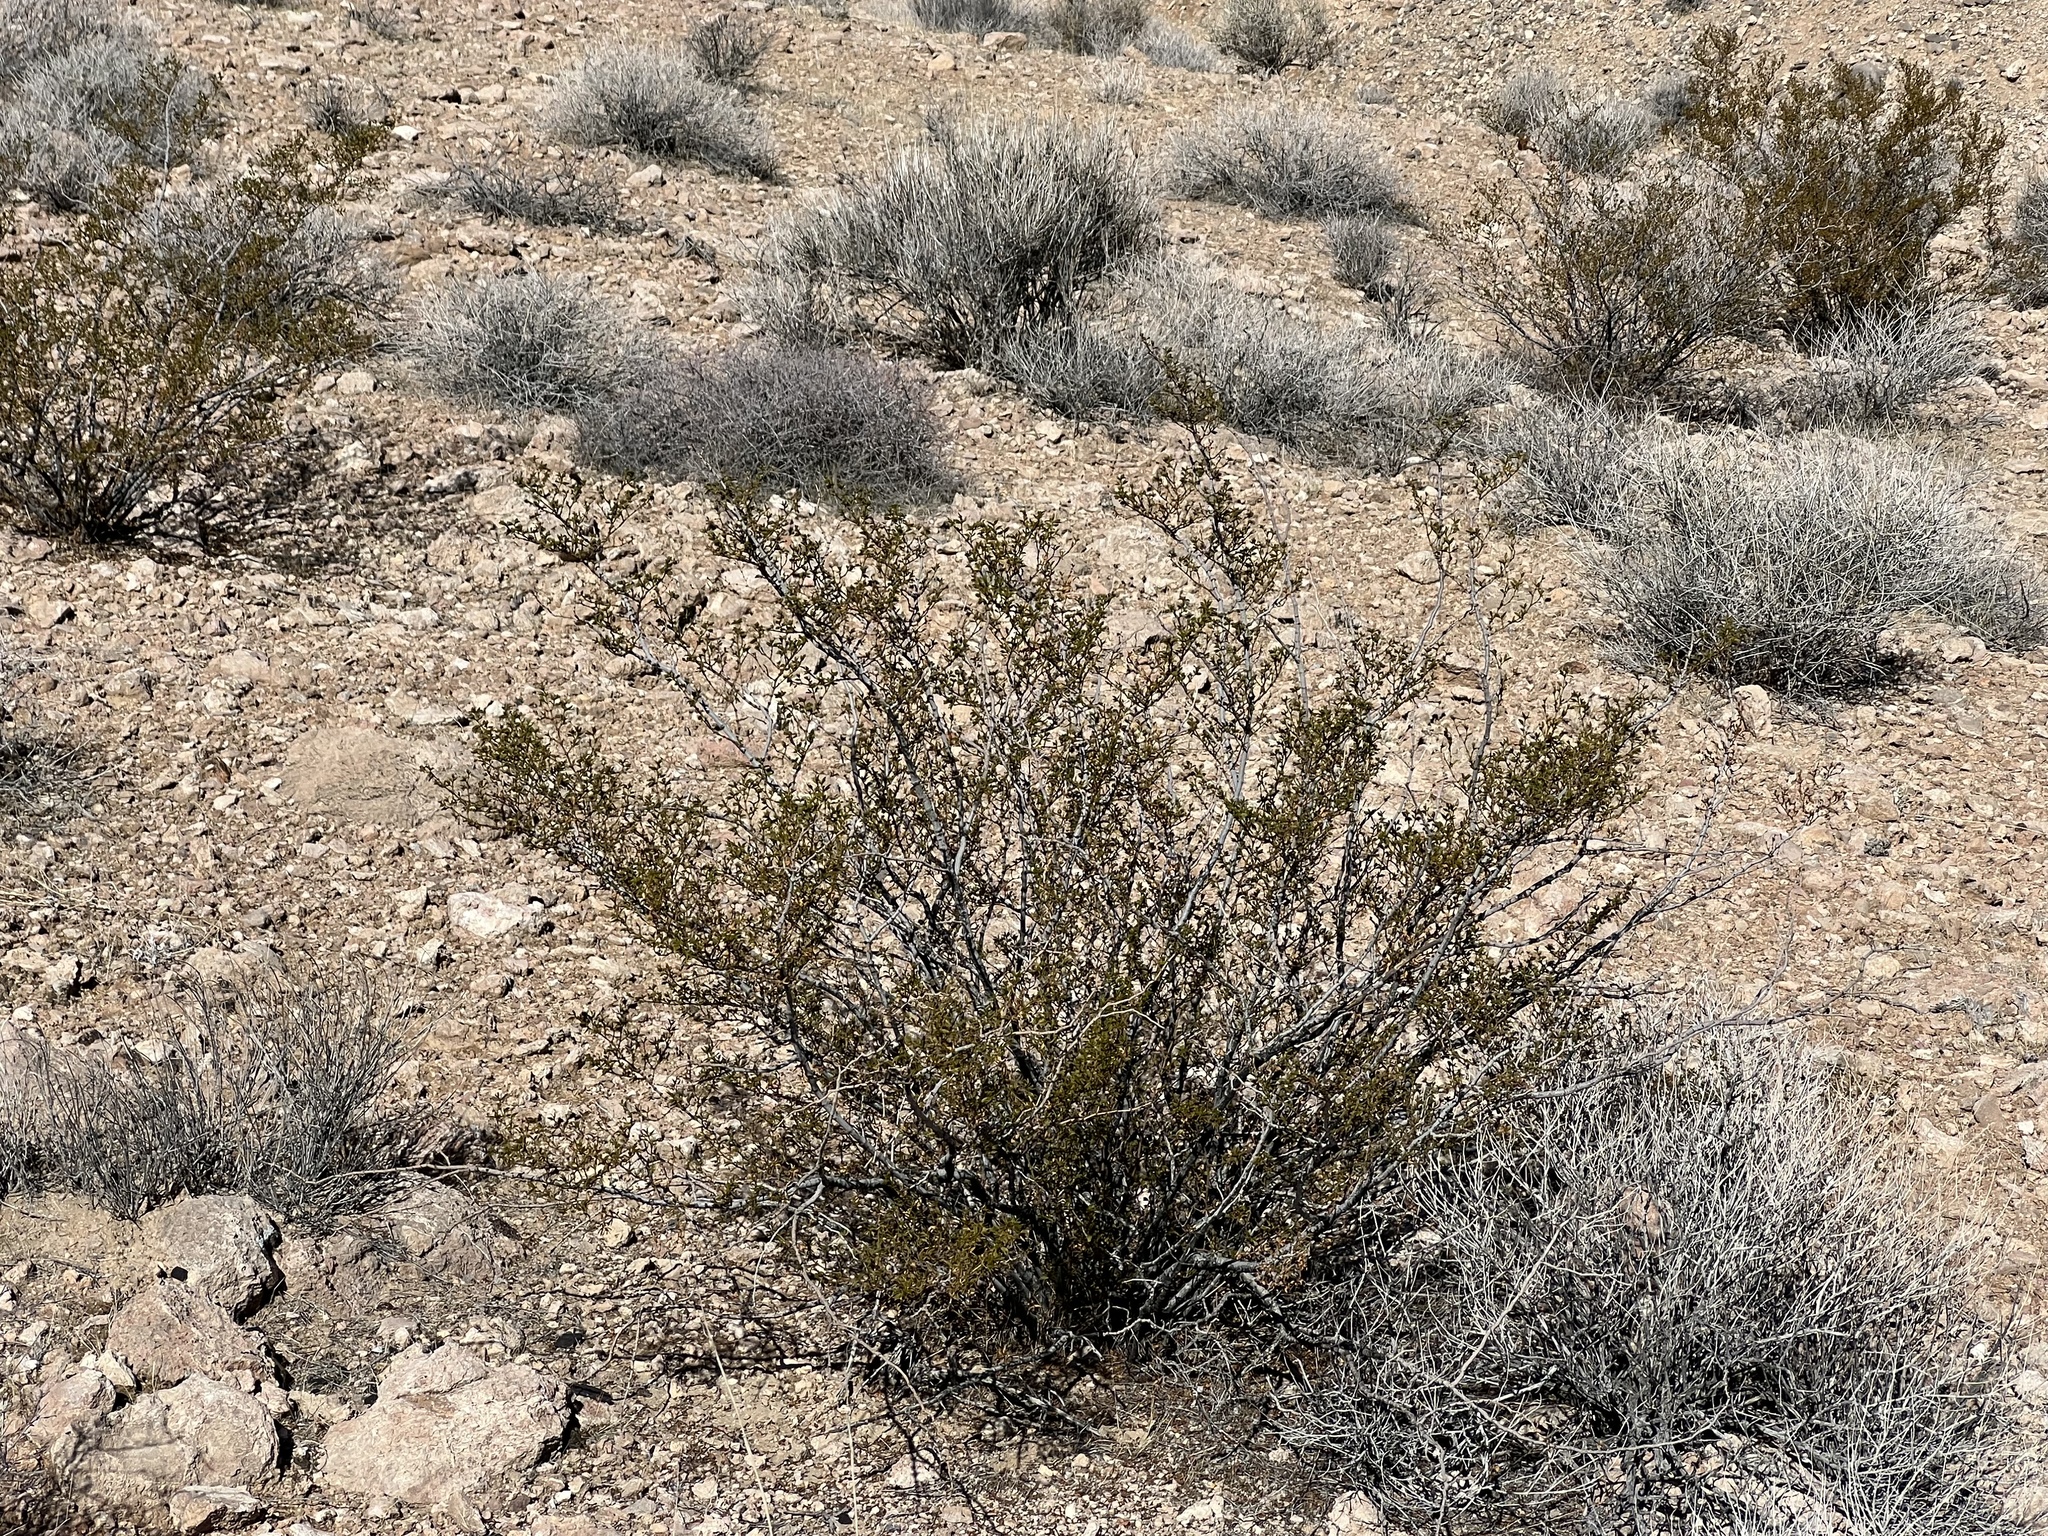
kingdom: Plantae
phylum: Tracheophyta
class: Magnoliopsida
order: Zygophyllales
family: Zygophyllaceae
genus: Larrea
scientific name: Larrea tridentata
